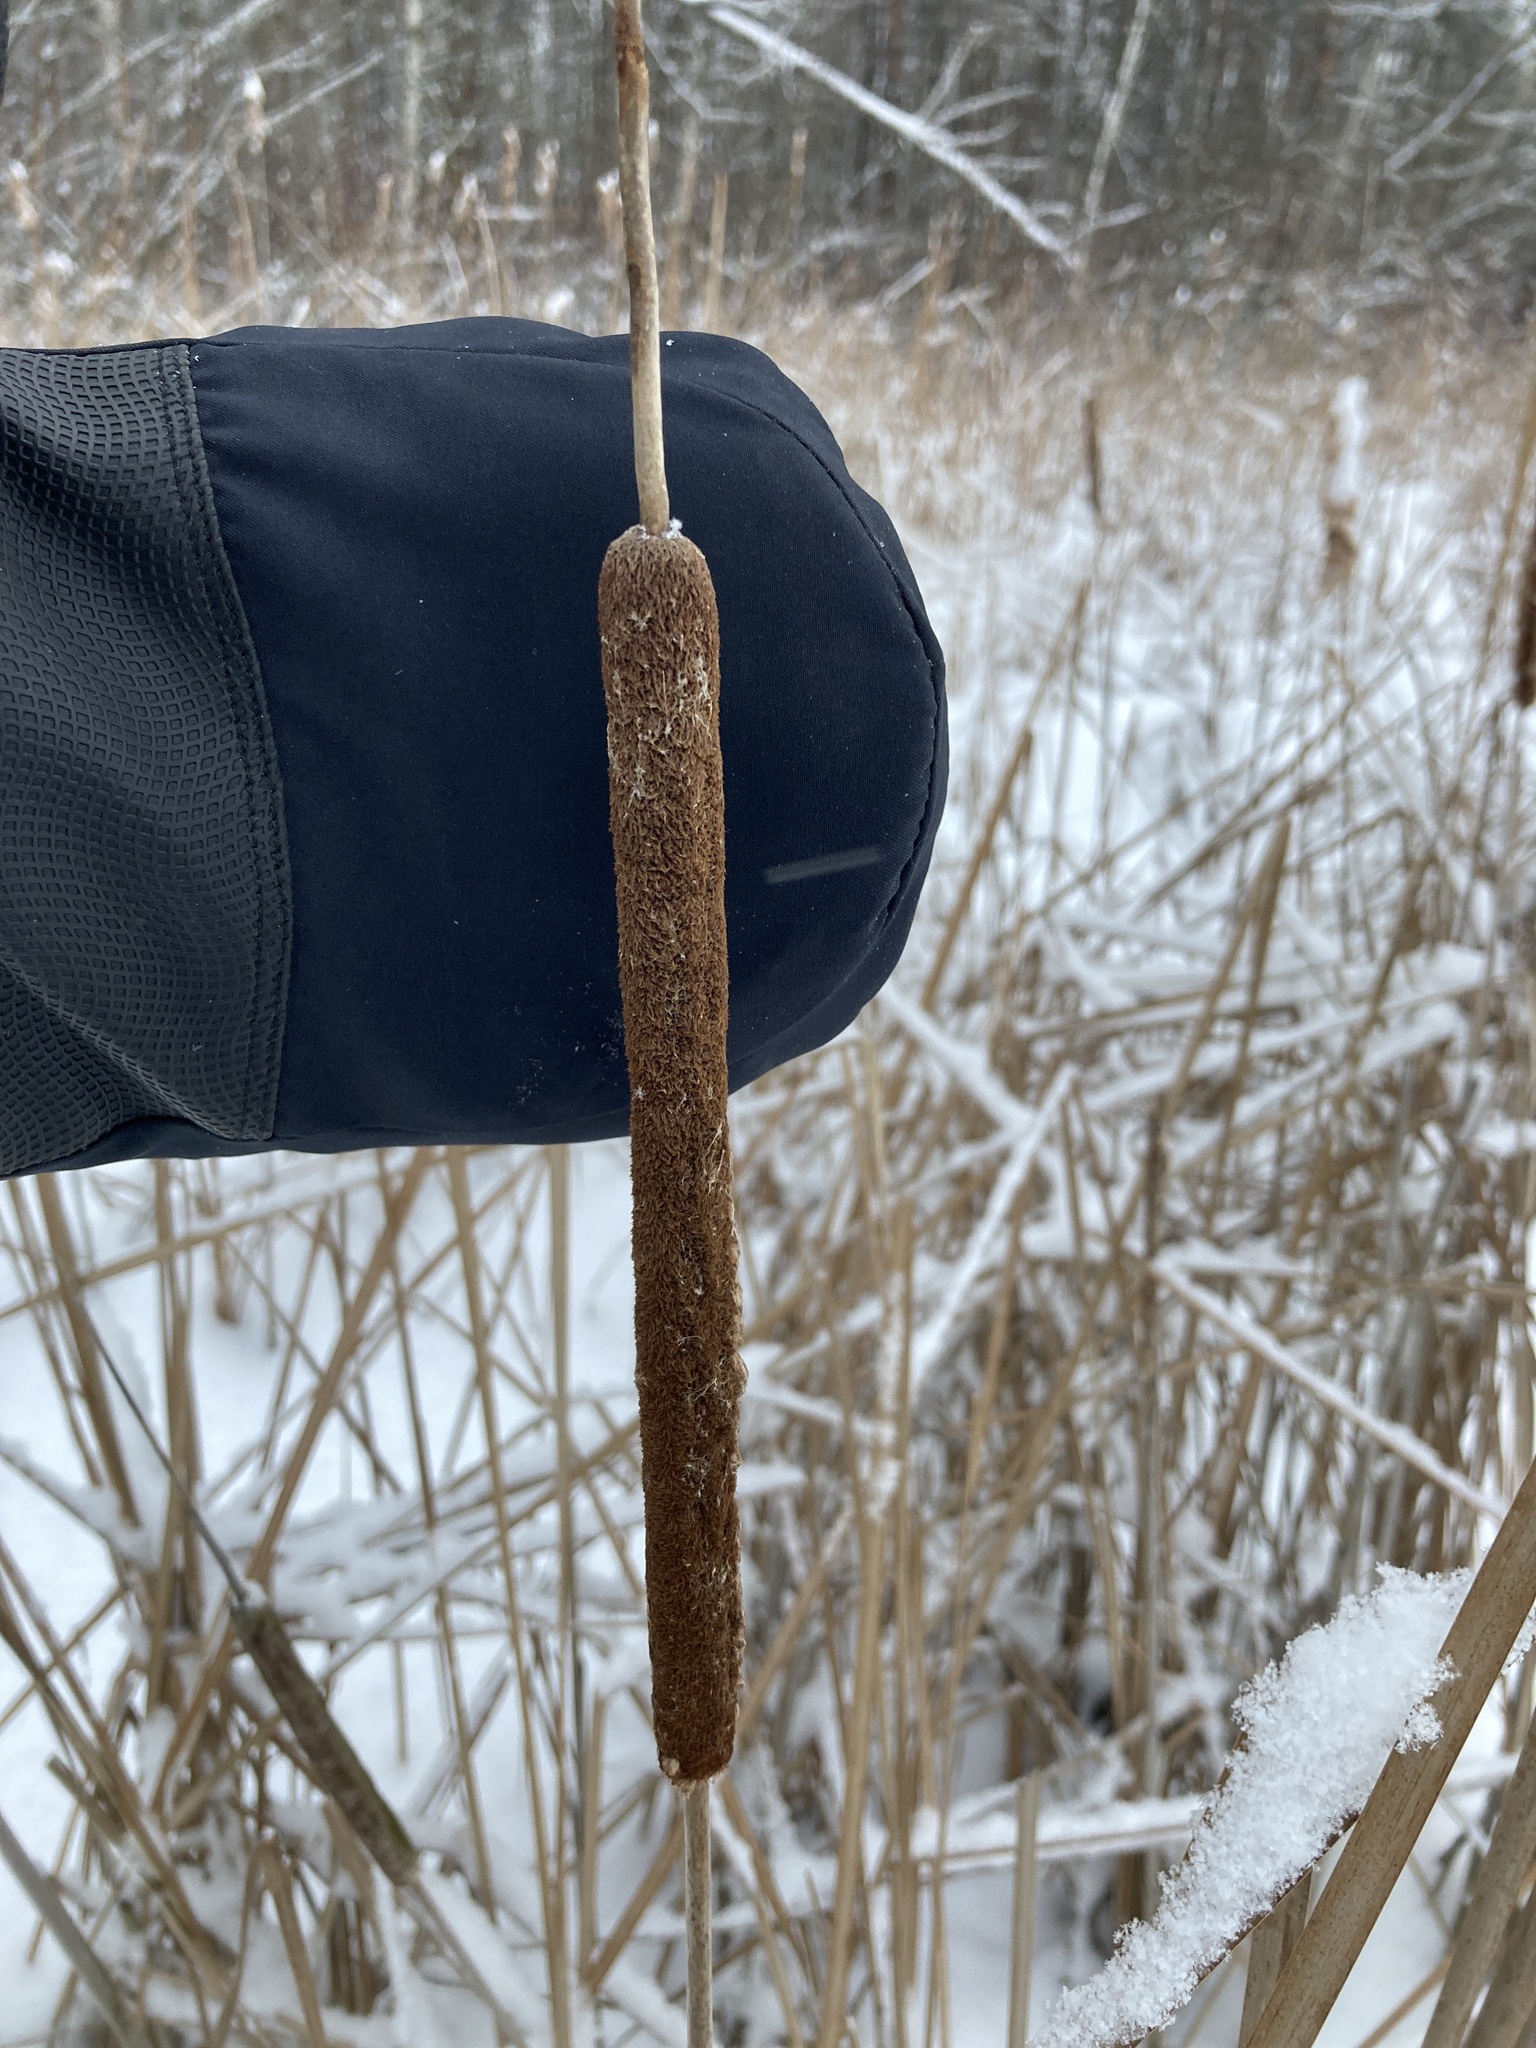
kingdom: Plantae
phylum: Tracheophyta
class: Liliopsida
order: Poales
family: Typhaceae
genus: Typha
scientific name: Typha angustifolia
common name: Lesser bulrush
